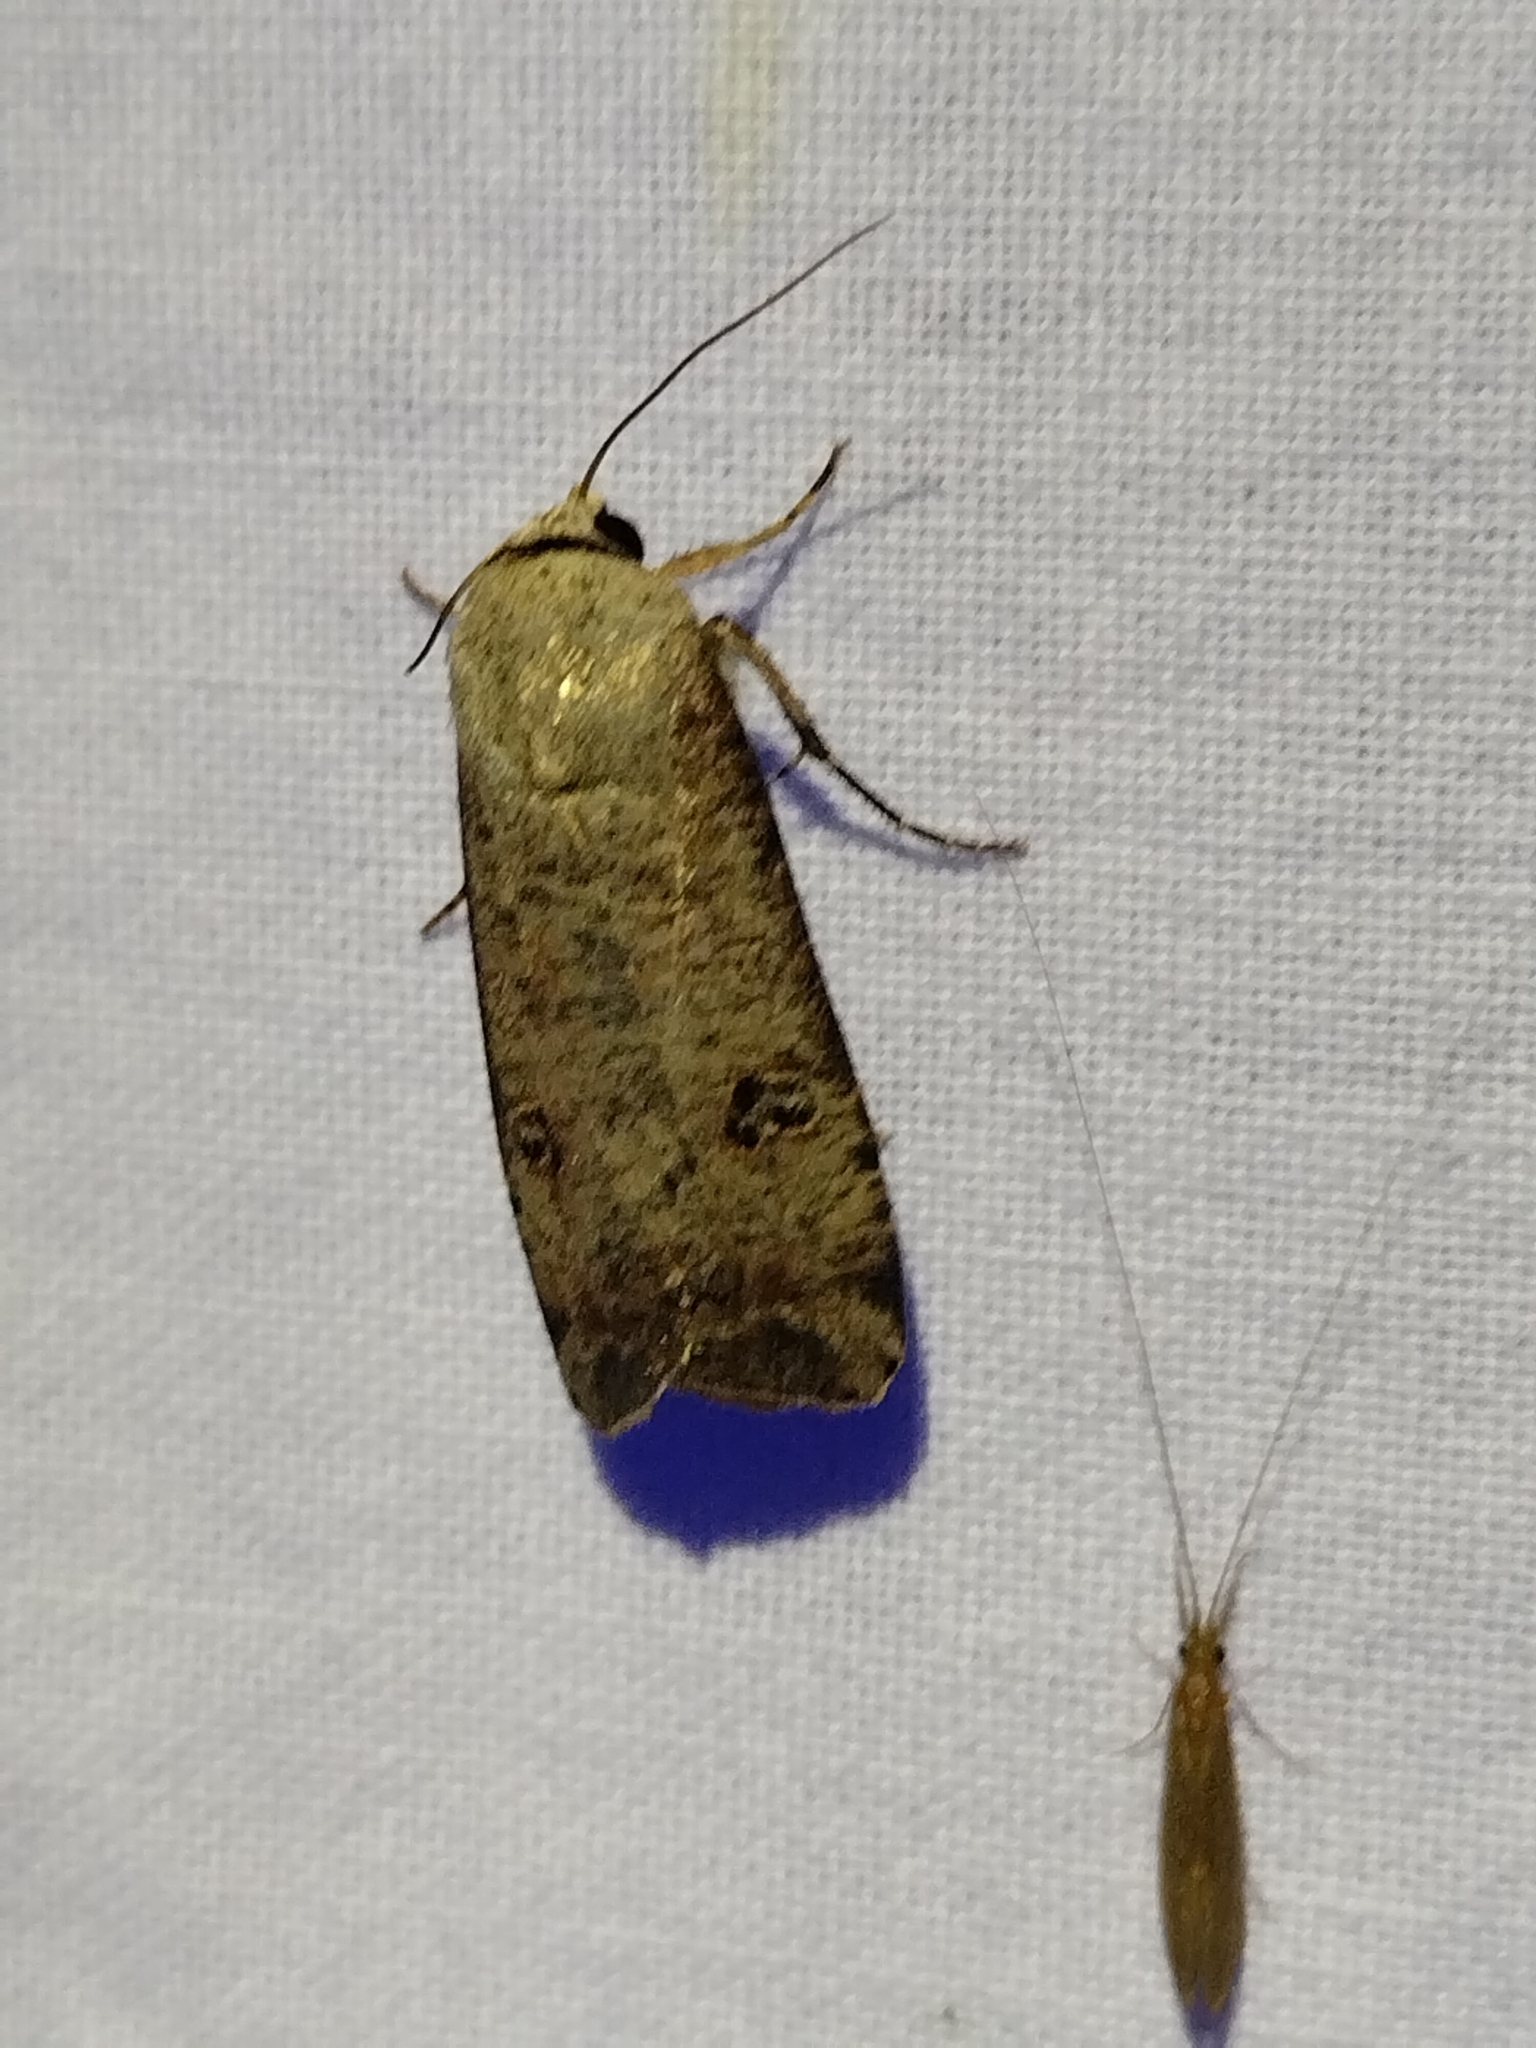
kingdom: Animalia
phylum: Arthropoda
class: Insecta
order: Lepidoptera
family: Noctuidae
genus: Anicla
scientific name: Anicla infecta
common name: Green cutworm
